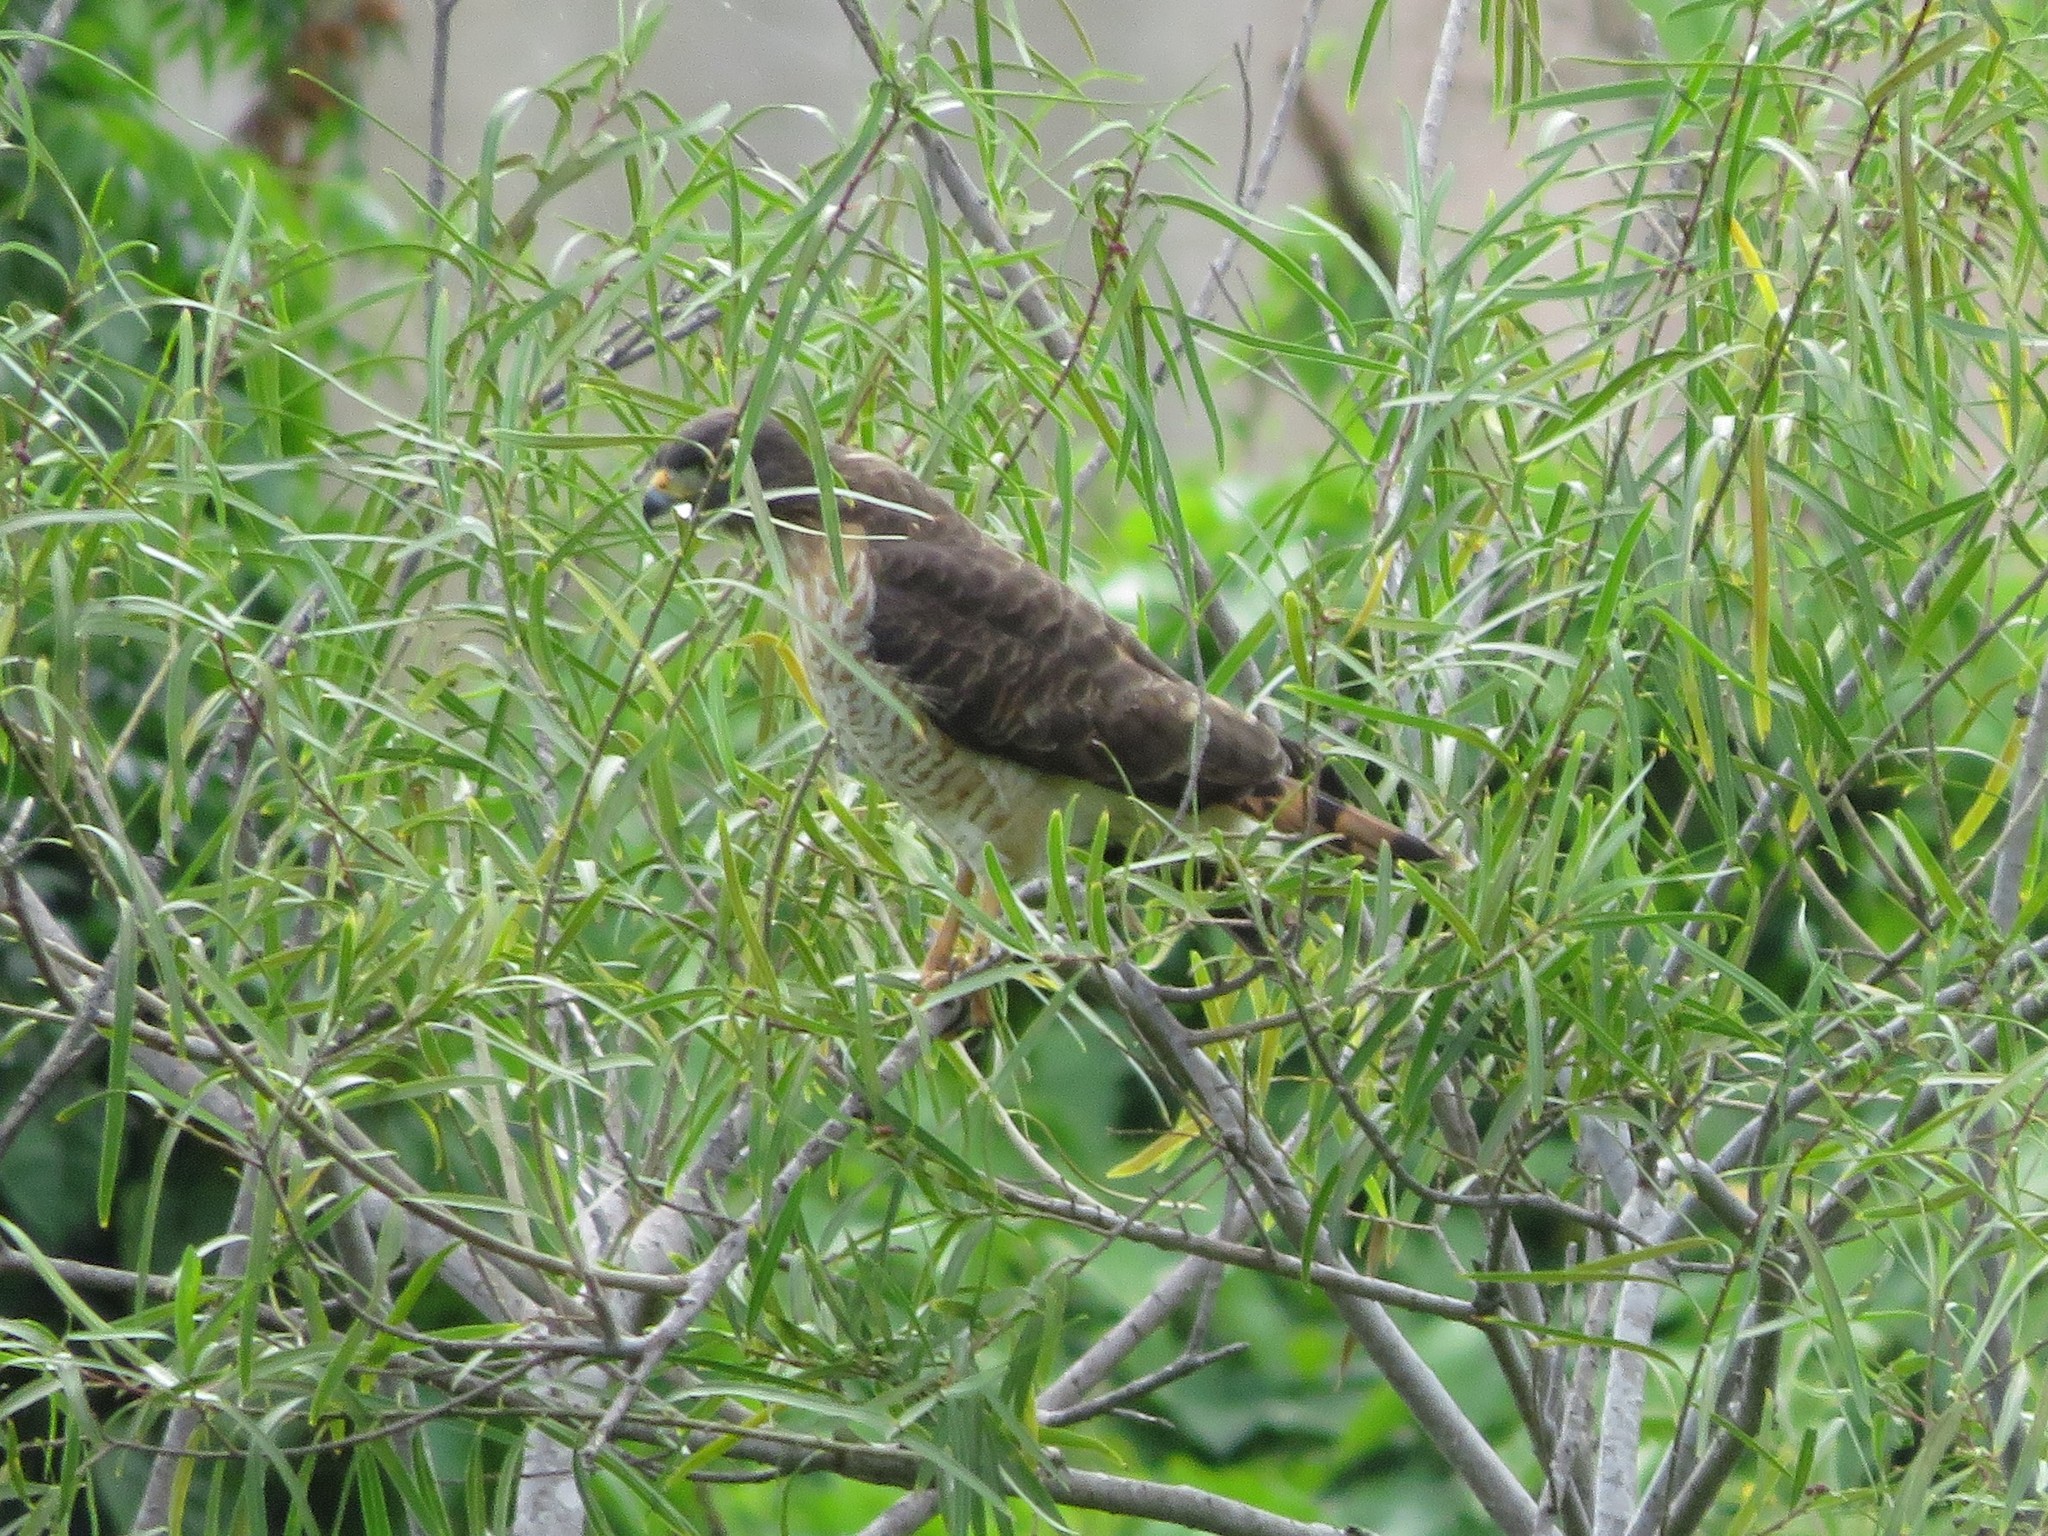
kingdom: Animalia
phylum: Chordata
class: Aves
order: Accipitriformes
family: Accipitridae
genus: Rupornis
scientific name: Rupornis magnirostris
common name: Roadside hawk
